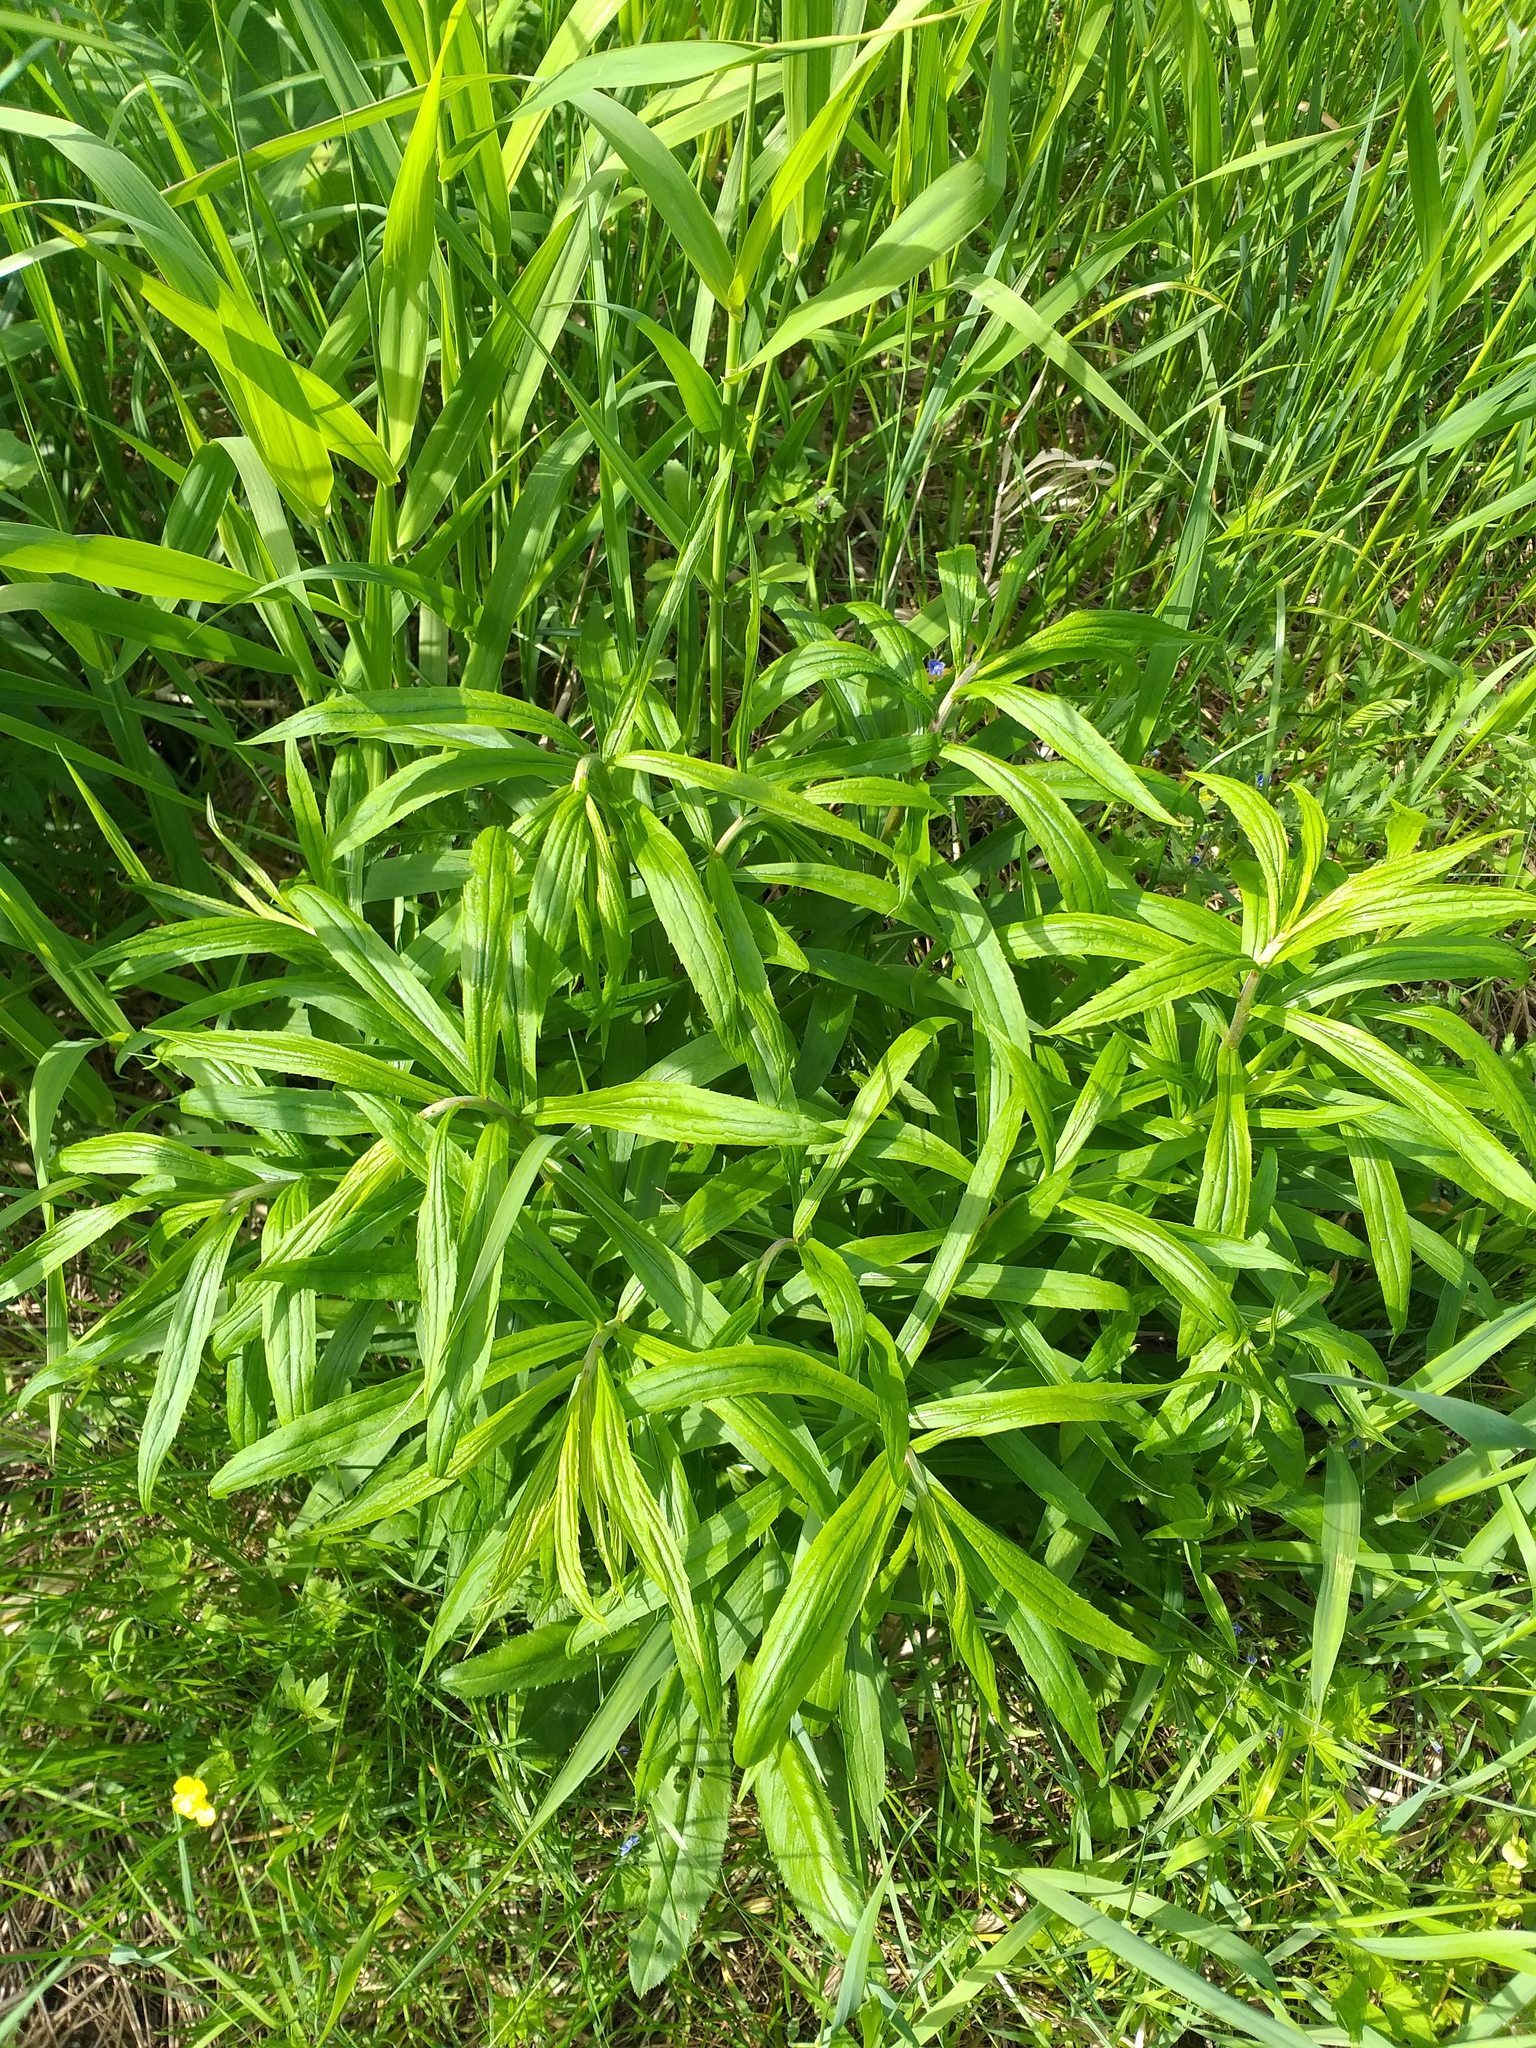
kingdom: Plantae
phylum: Tracheophyta
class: Magnoliopsida
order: Asterales
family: Asteraceae
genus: Solidago
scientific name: Solidago canadensis
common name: Canada goldenrod
